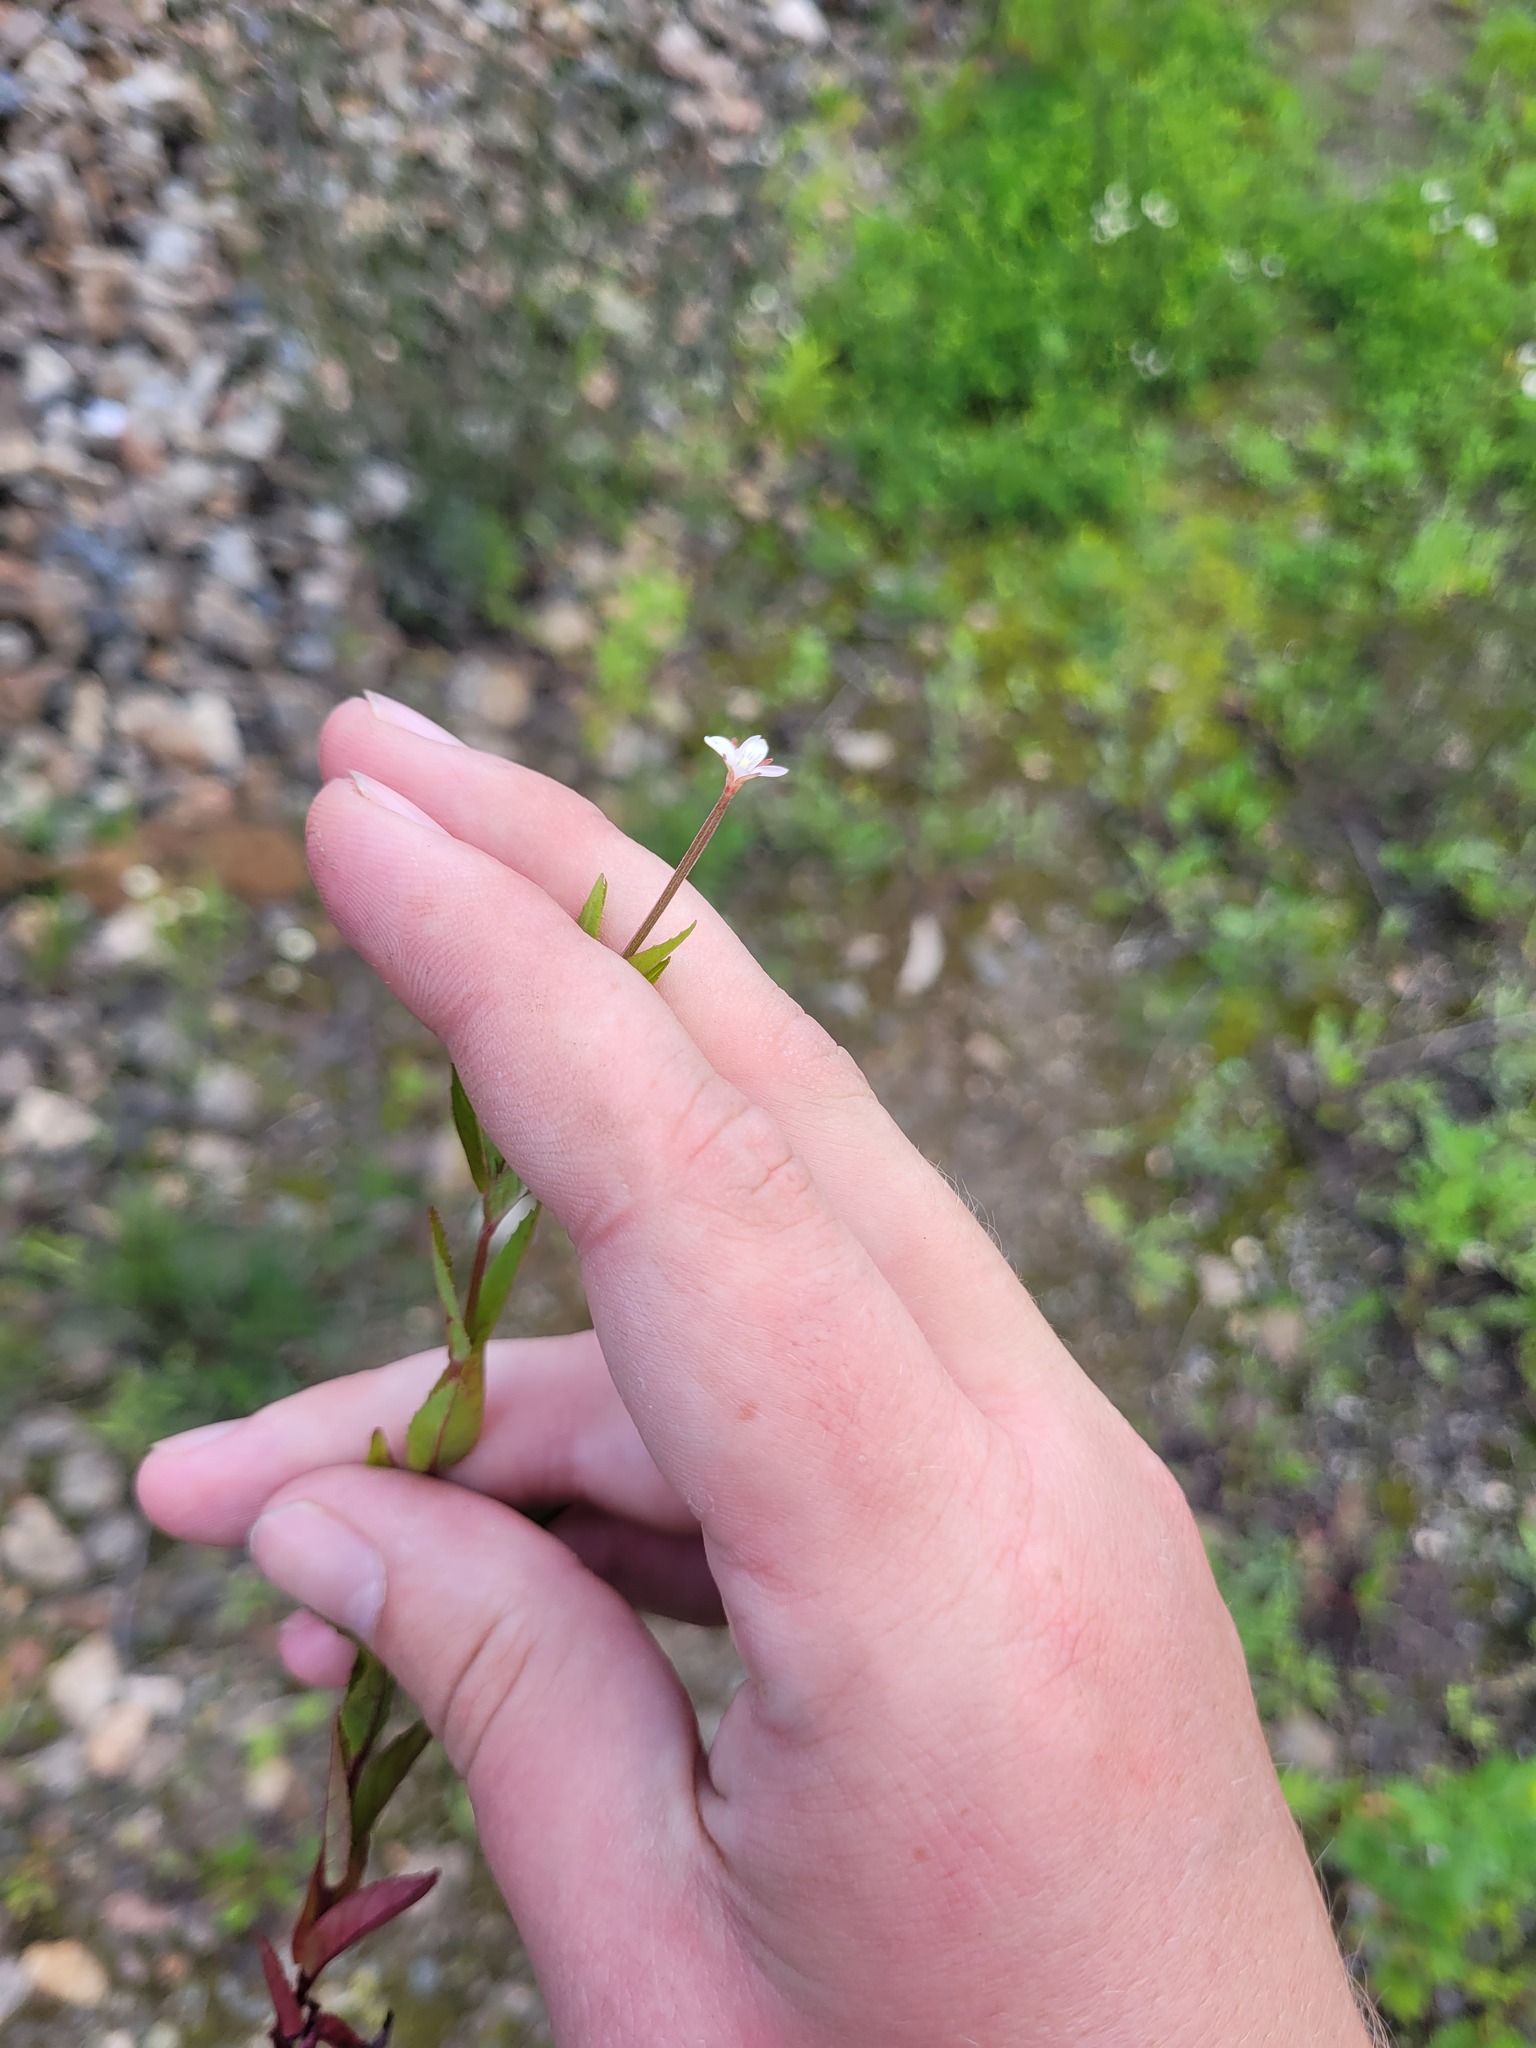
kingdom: Plantae
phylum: Tracheophyta
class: Magnoliopsida
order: Myrtales
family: Onagraceae
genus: Epilobium
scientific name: Epilobium pseudorubescens
